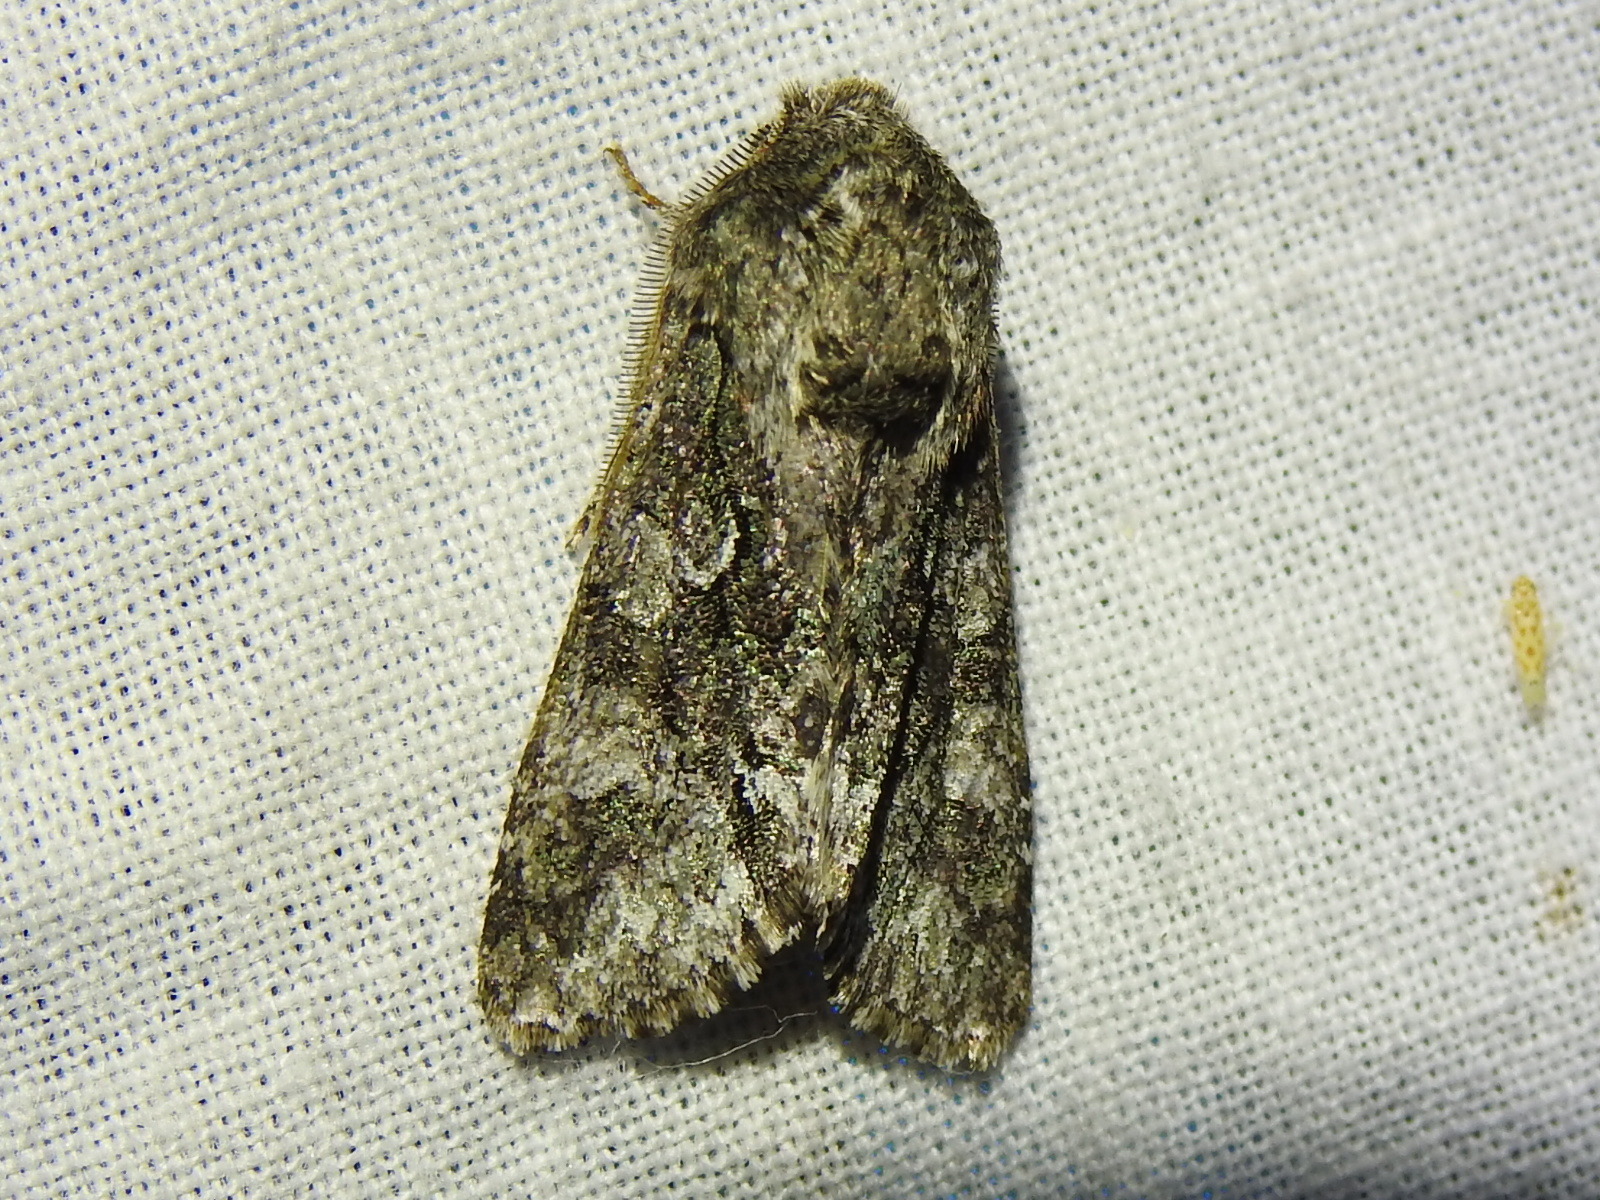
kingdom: Animalia
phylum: Arthropoda
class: Insecta
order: Lepidoptera
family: Noctuidae
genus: Psaphida
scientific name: Psaphida resumens
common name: Figure-eight sallow
